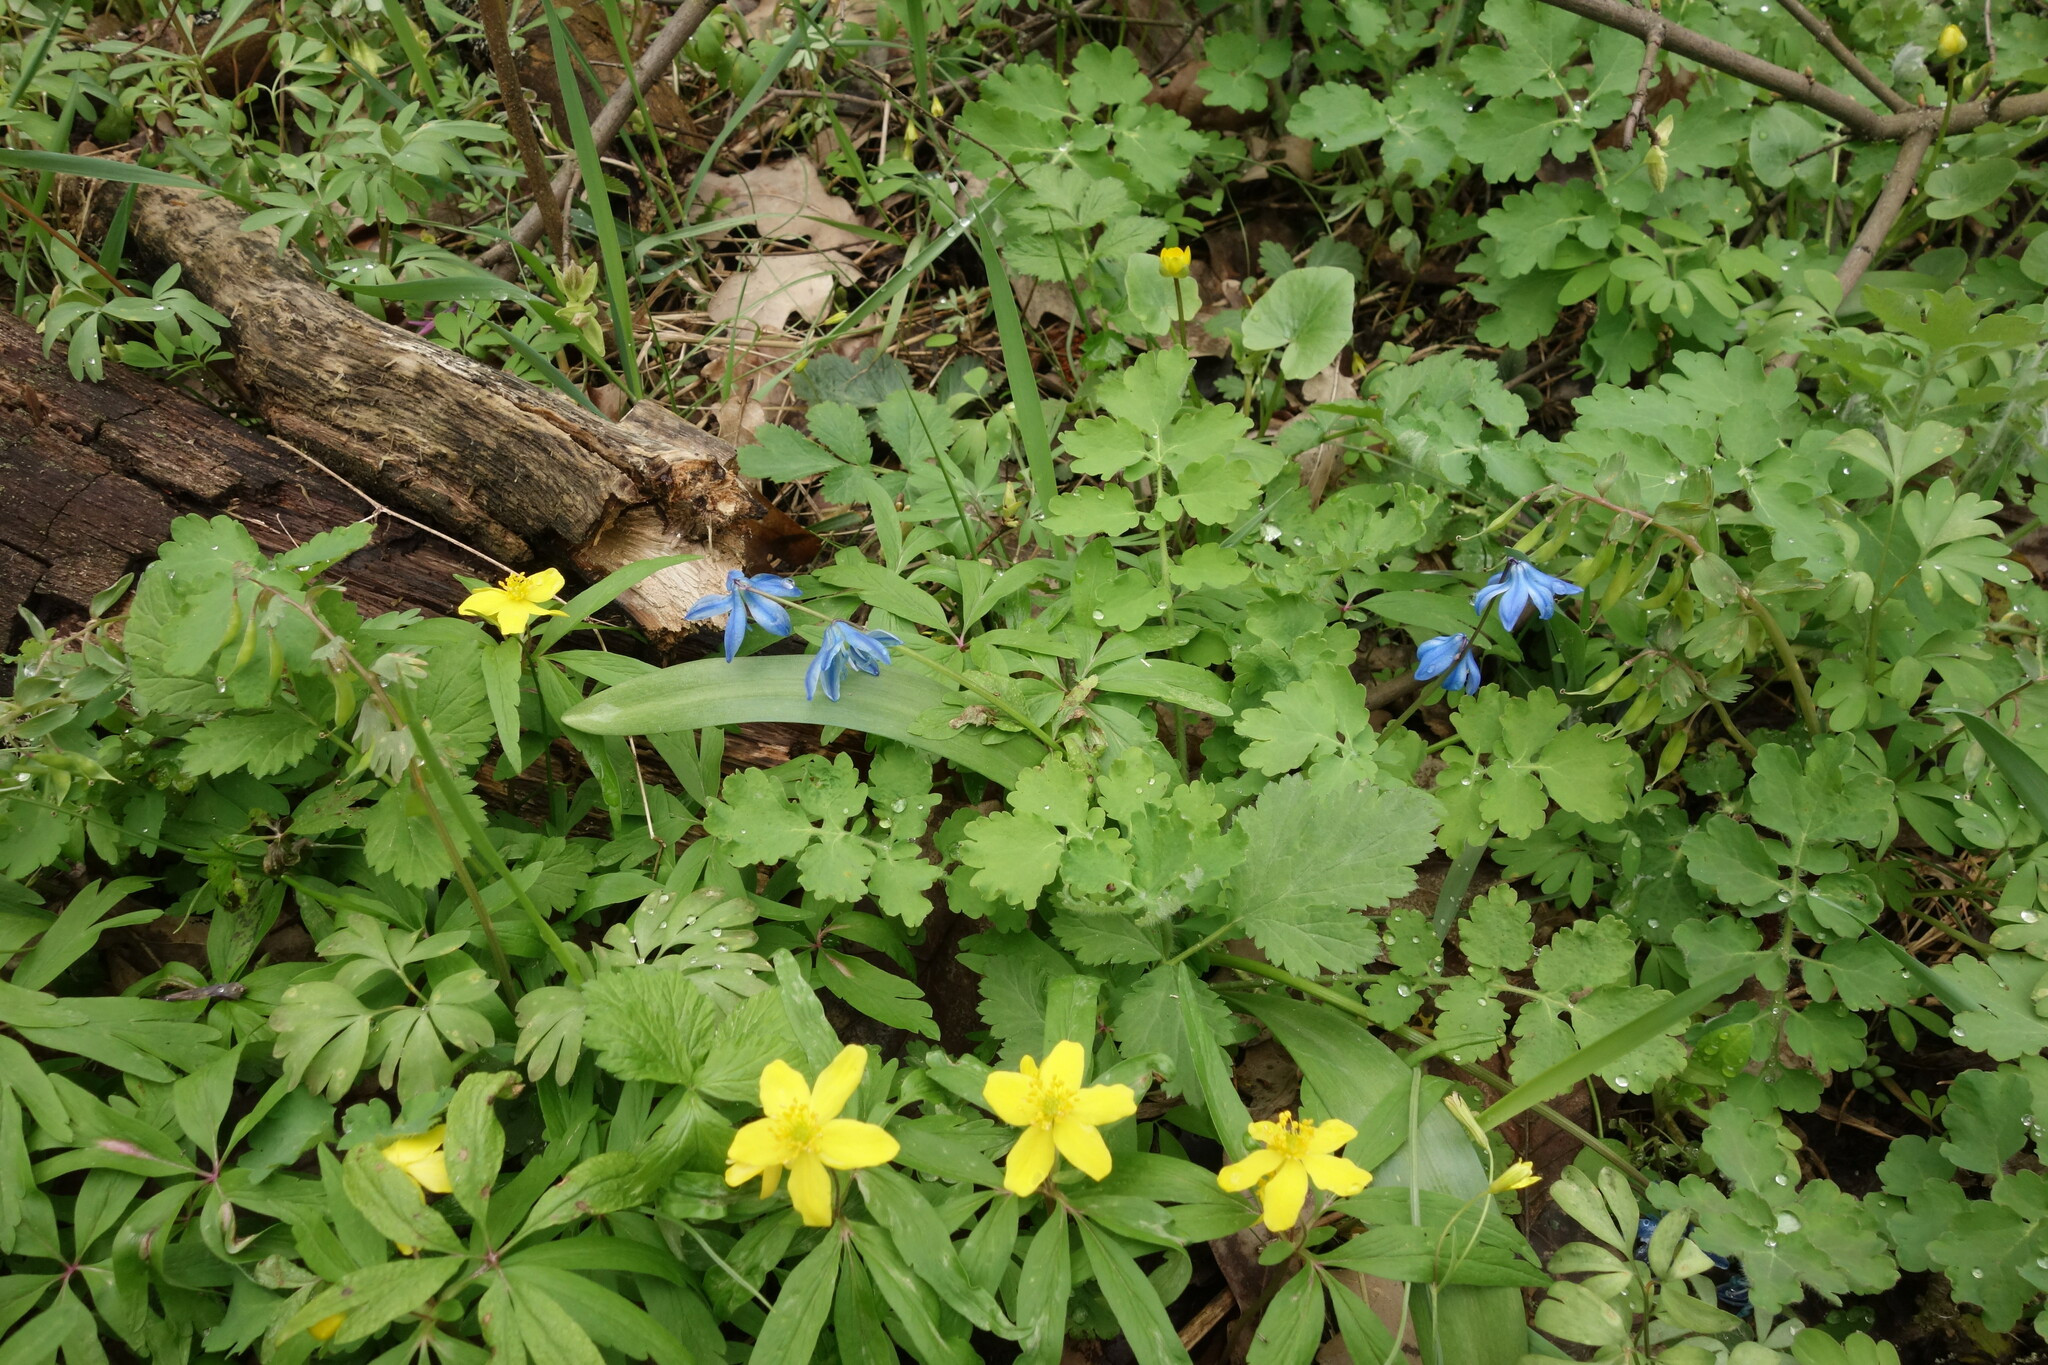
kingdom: Plantae
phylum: Tracheophyta
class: Liliopsida
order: Asparagales
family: Asparagaceae
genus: Scilla
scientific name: Scilla siberica
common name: Siberian squill
